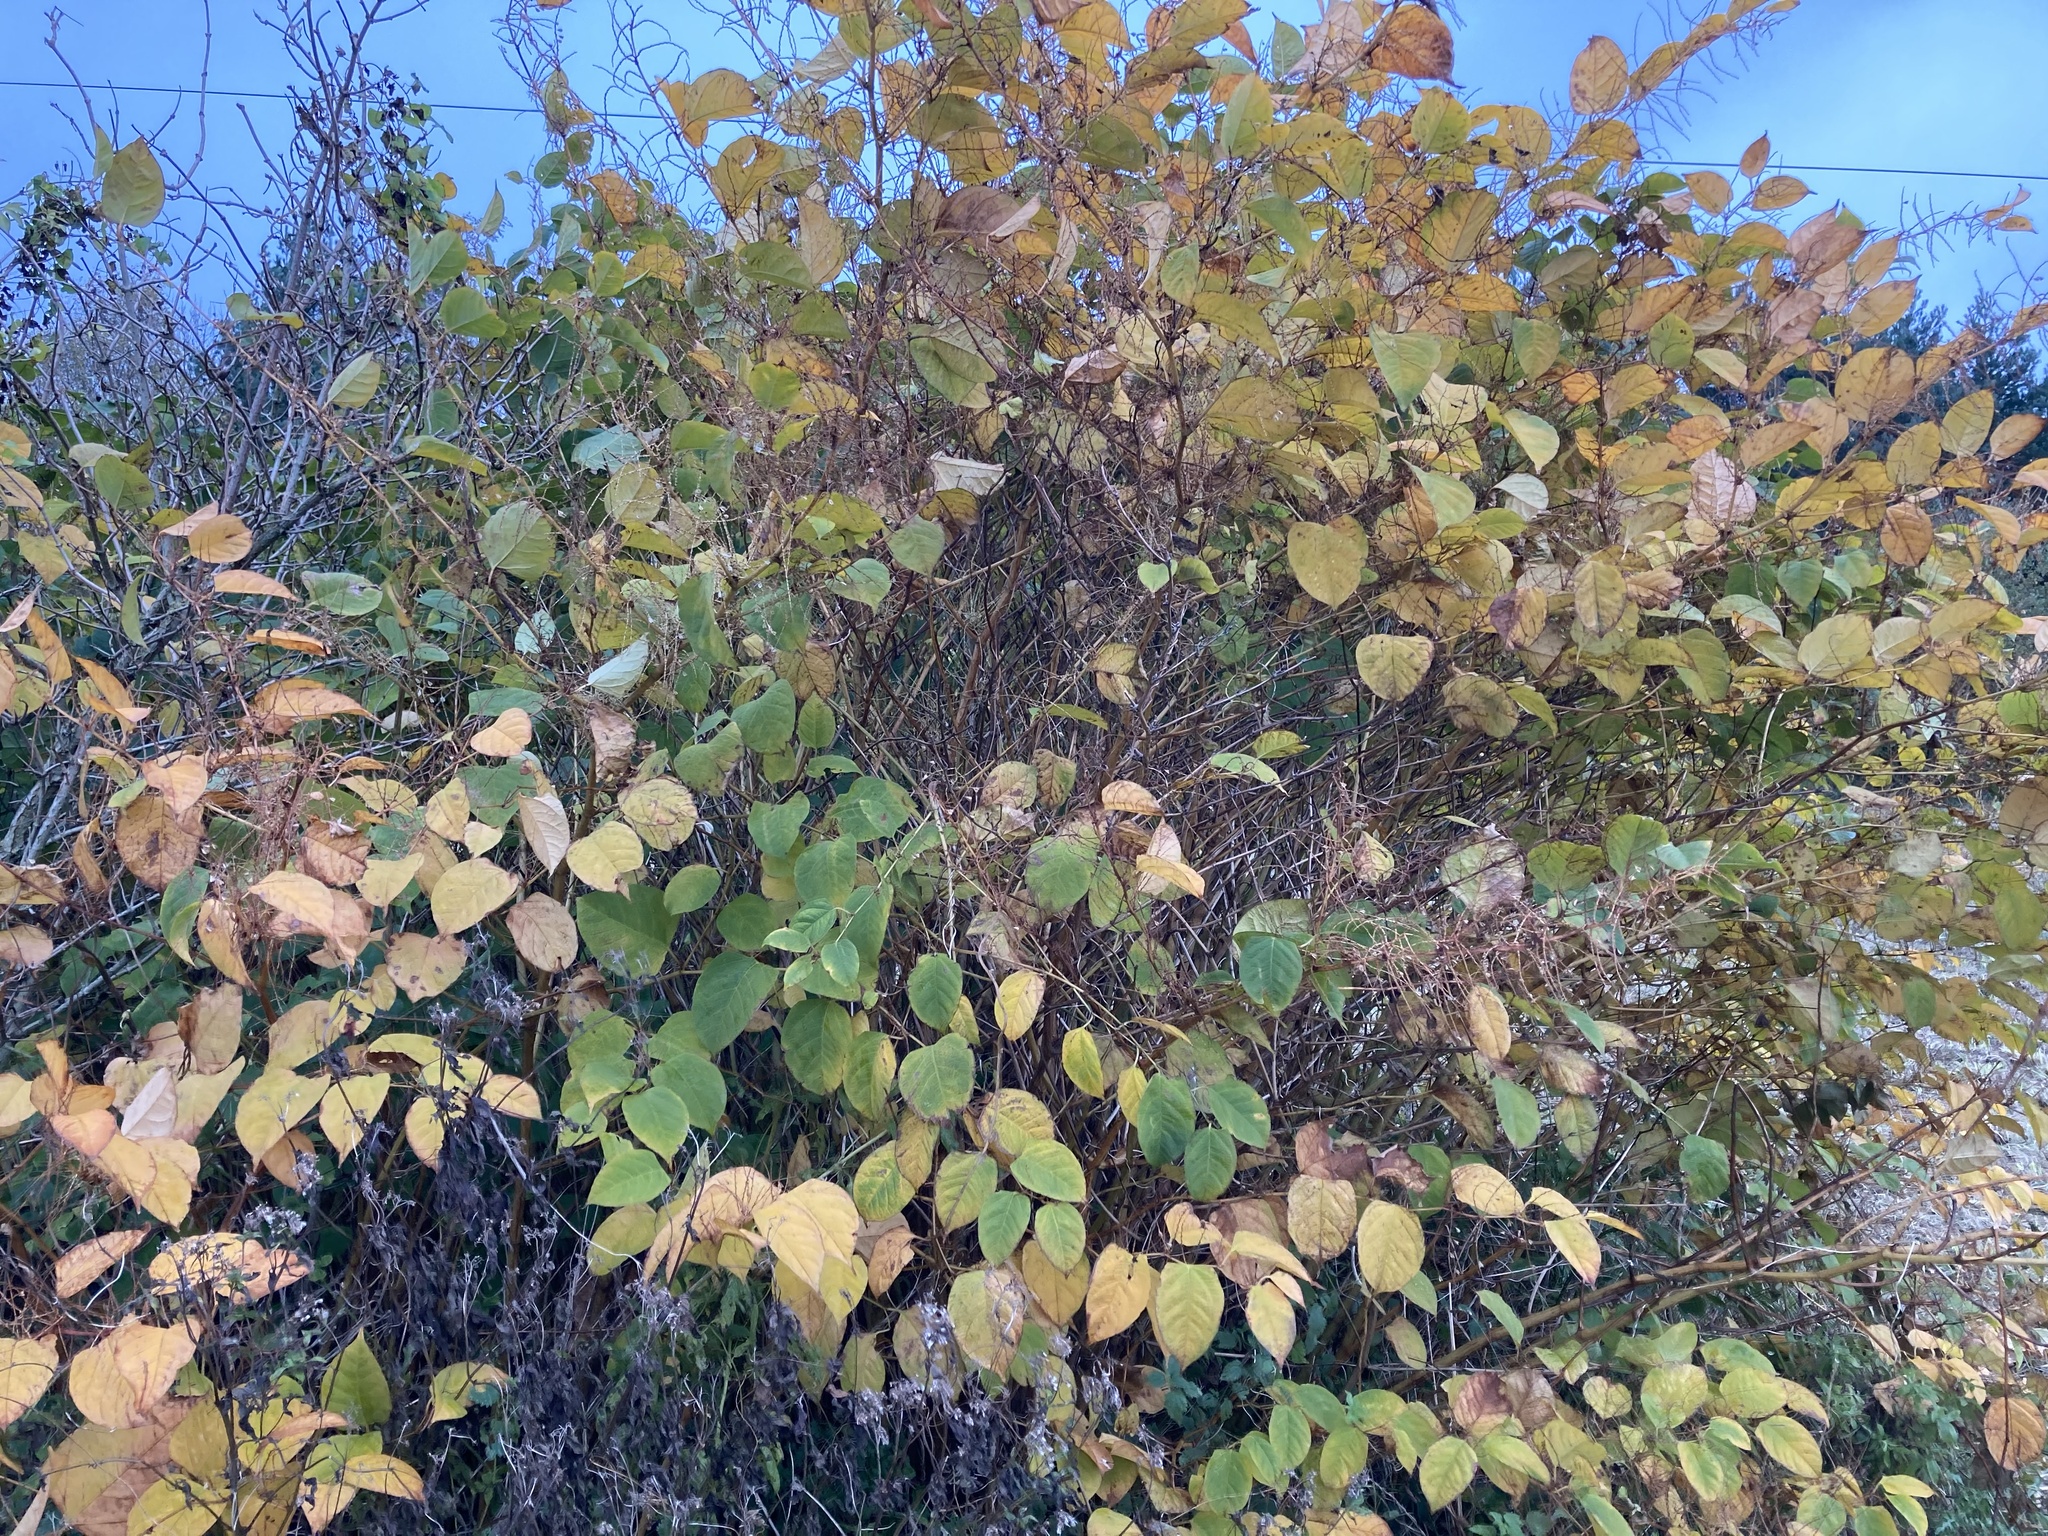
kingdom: Plantae
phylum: Tracheophyta
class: Magnoliopsida
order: Caryophyllales
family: Polygonaceae
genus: Reynoutria
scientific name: Reynoutria japonica
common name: Japanese knotweed
